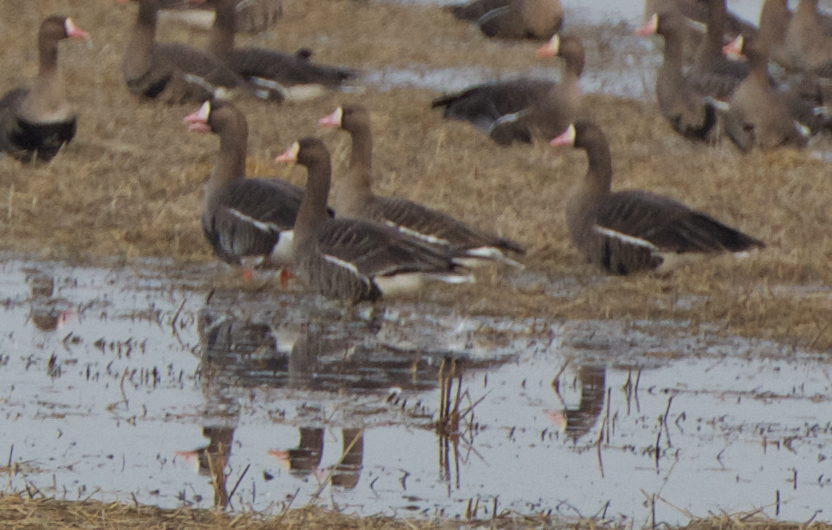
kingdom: Animalia
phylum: Chordata
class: Aves
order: Anseriformes
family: Anatidae
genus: Anser
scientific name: Anser albifrons
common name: Greater white-fronted goose
